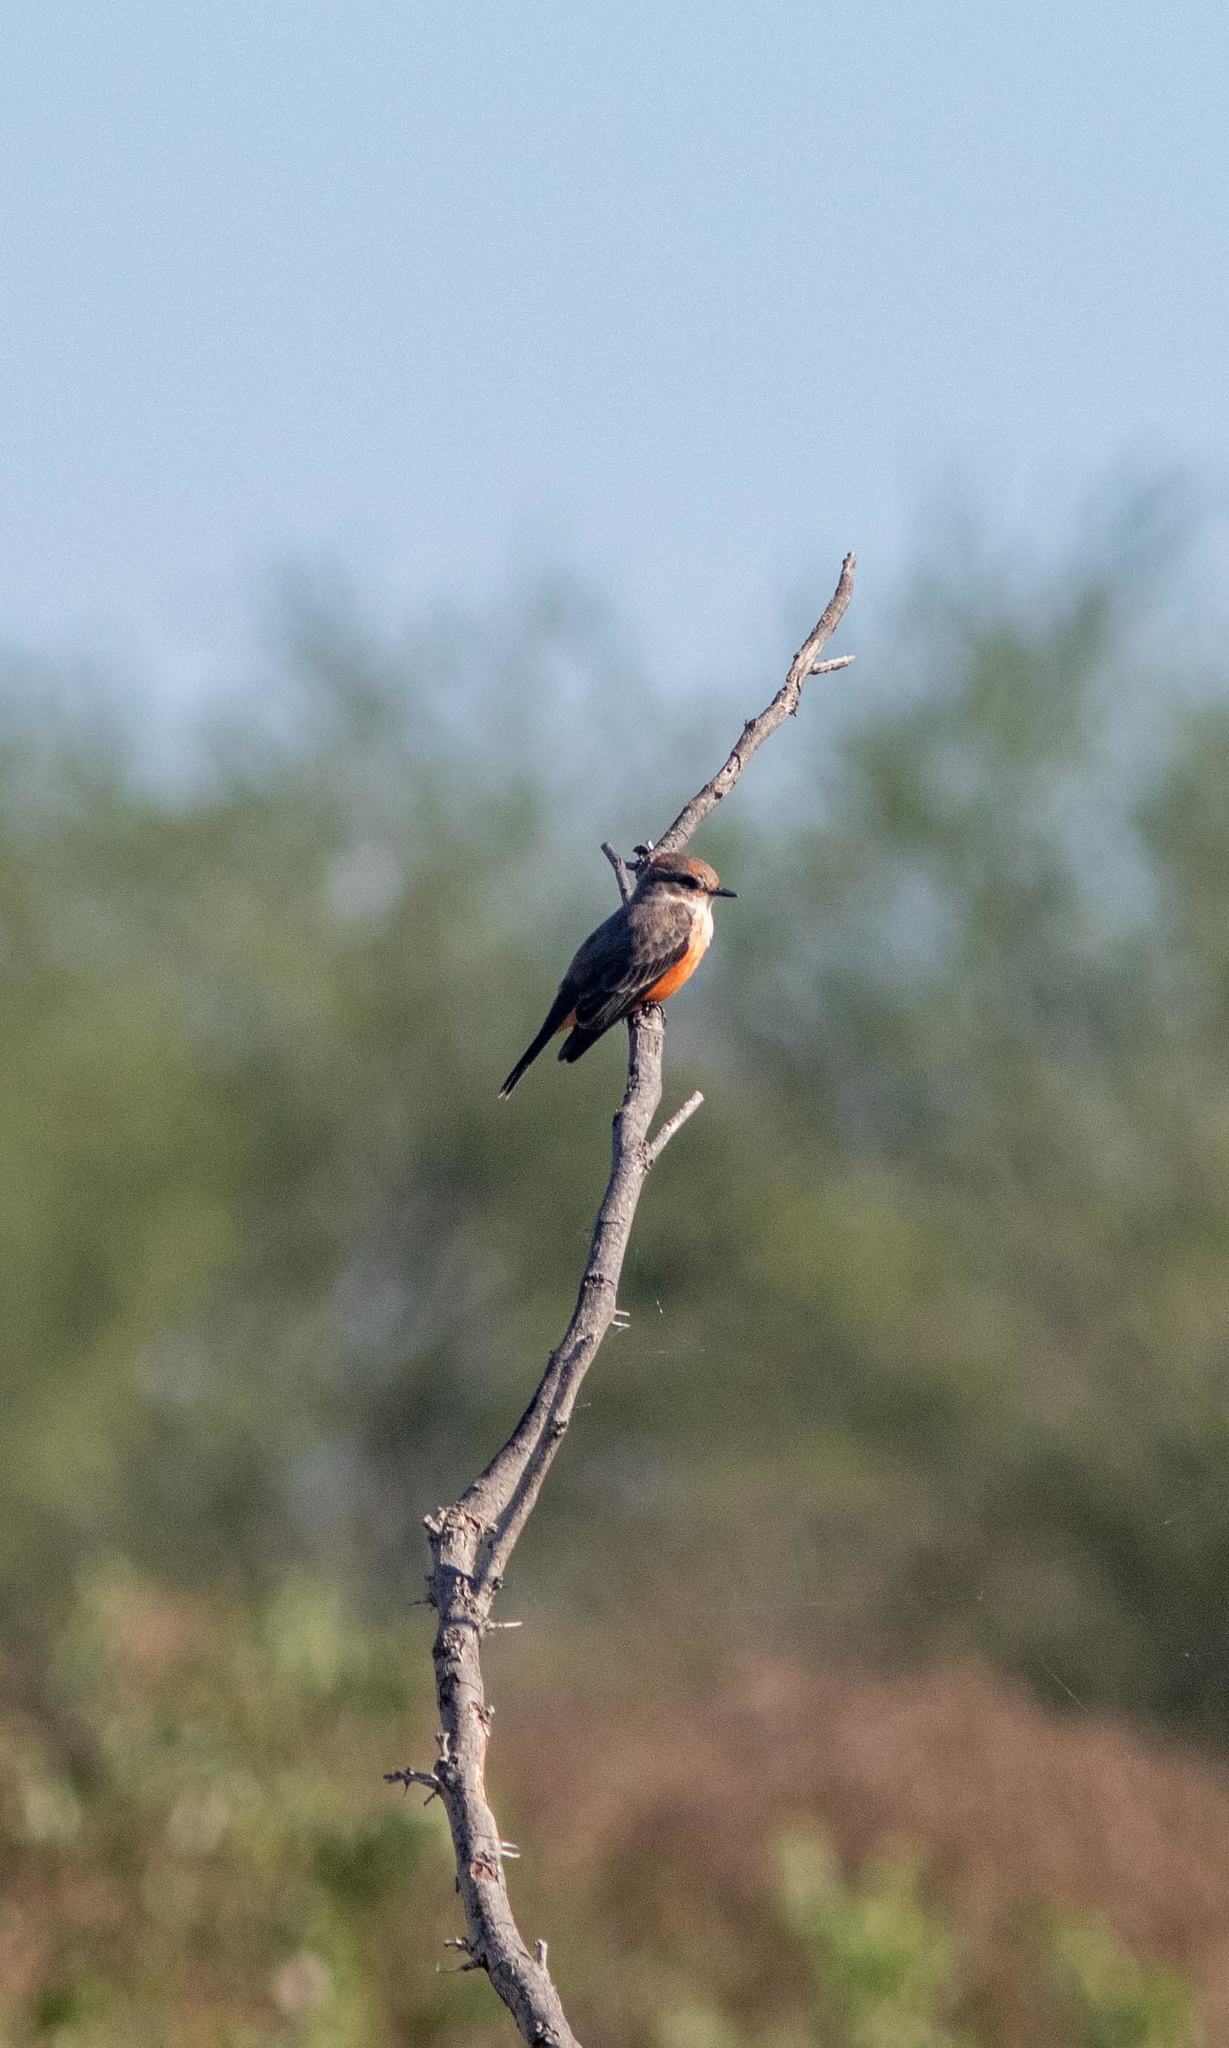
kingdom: Animalia
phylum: Chordata
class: Aves
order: Passeriformes
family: Tyrannidae
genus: Pyrocephalus
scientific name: Pyrocephalus rubinus
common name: Vermilion flycatcher
